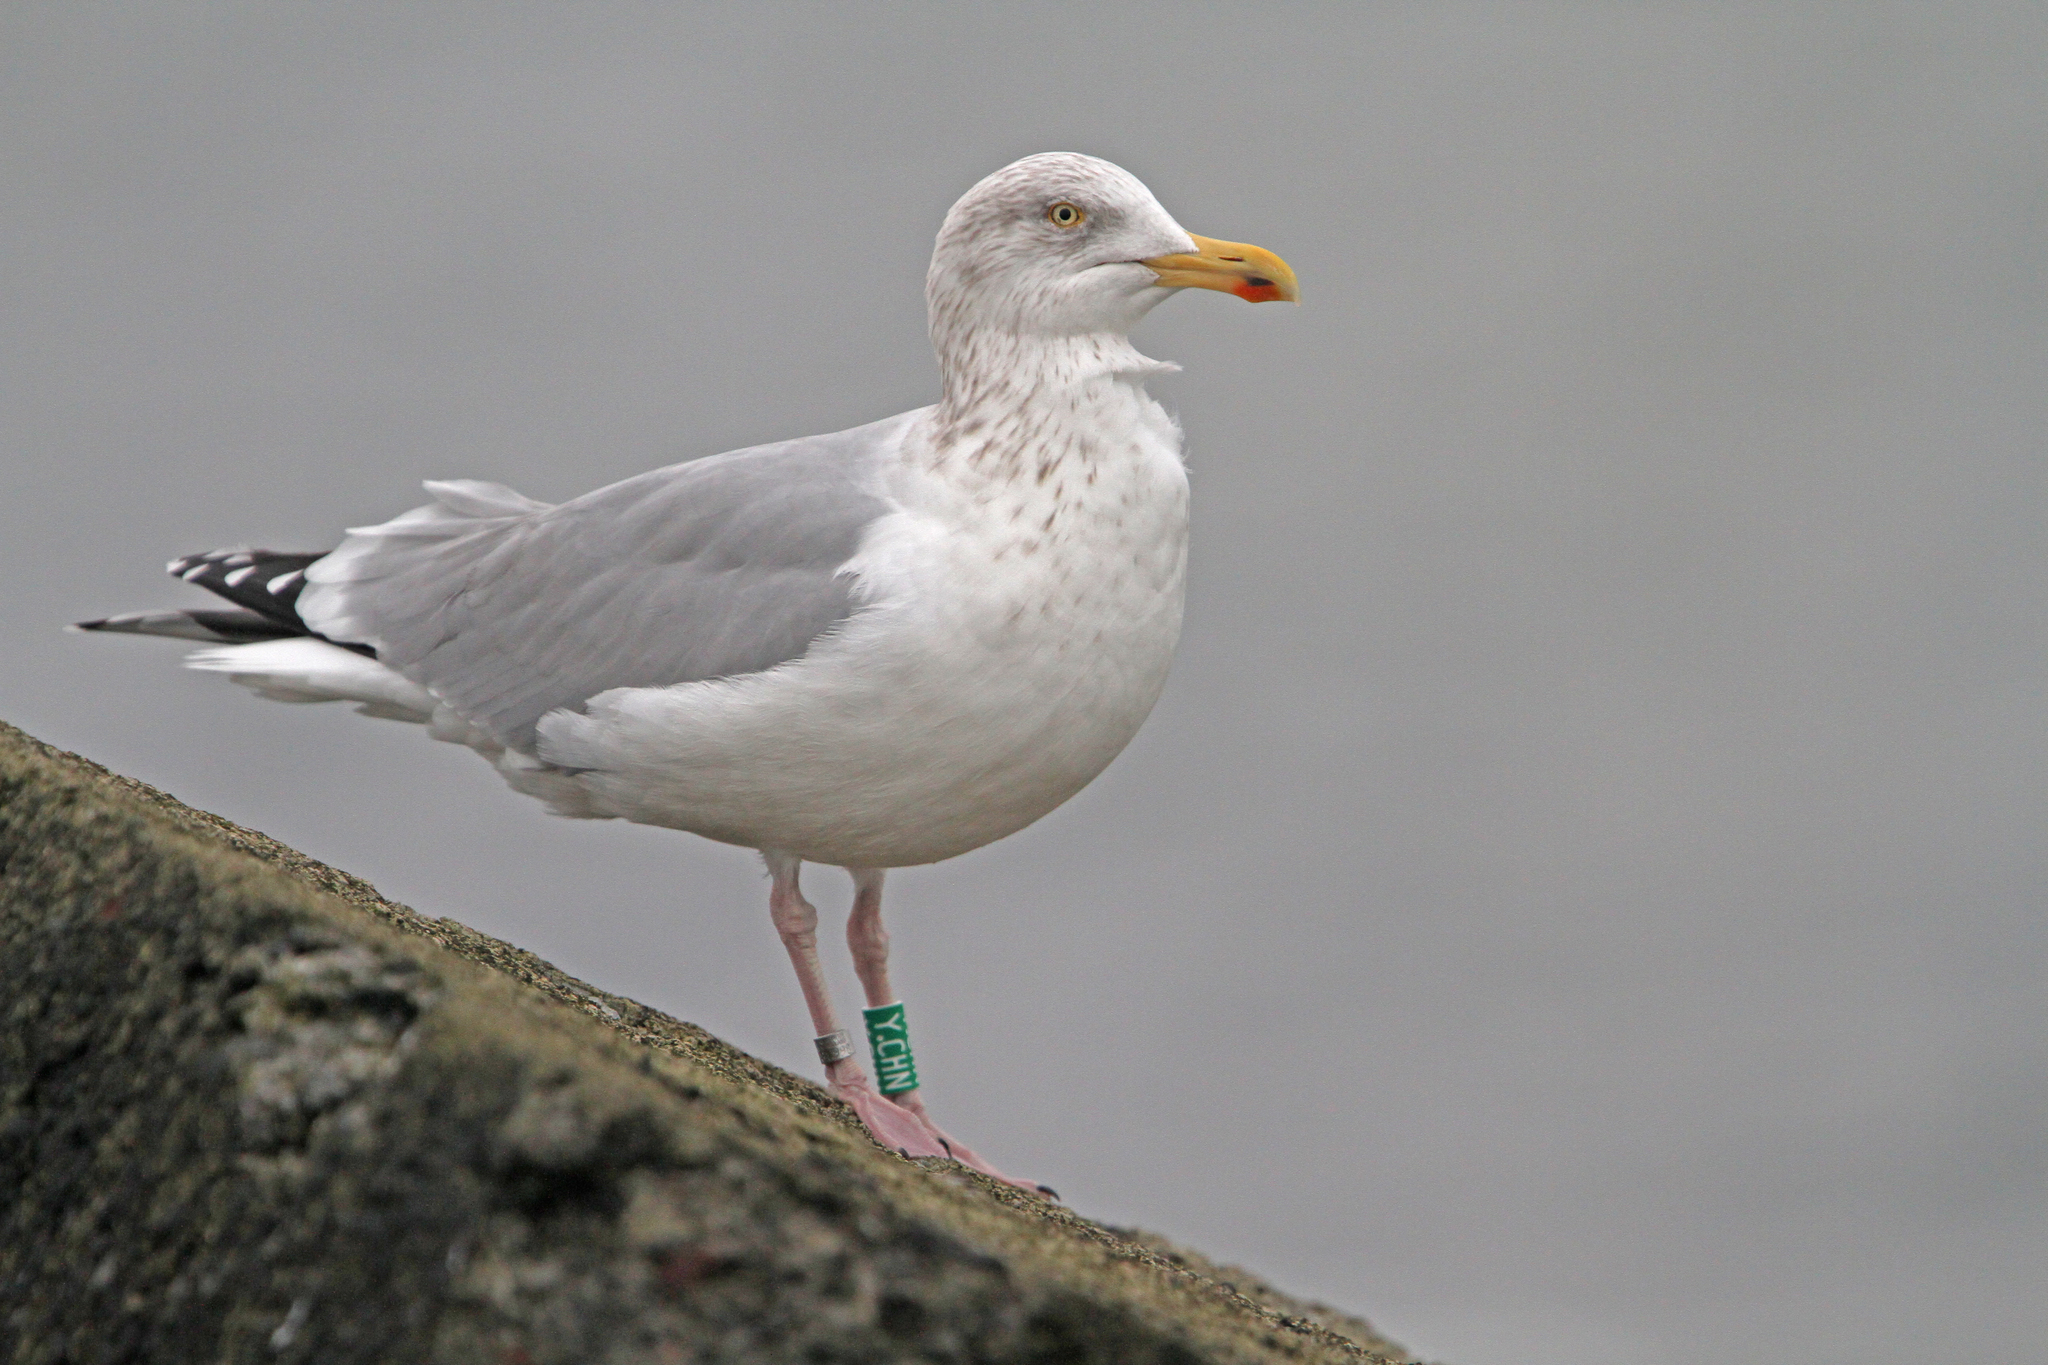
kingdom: Animalia
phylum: Chordata
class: Aves
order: Charadriiformes
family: Laridae
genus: Larus
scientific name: Larus argentatus
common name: Herring gull
